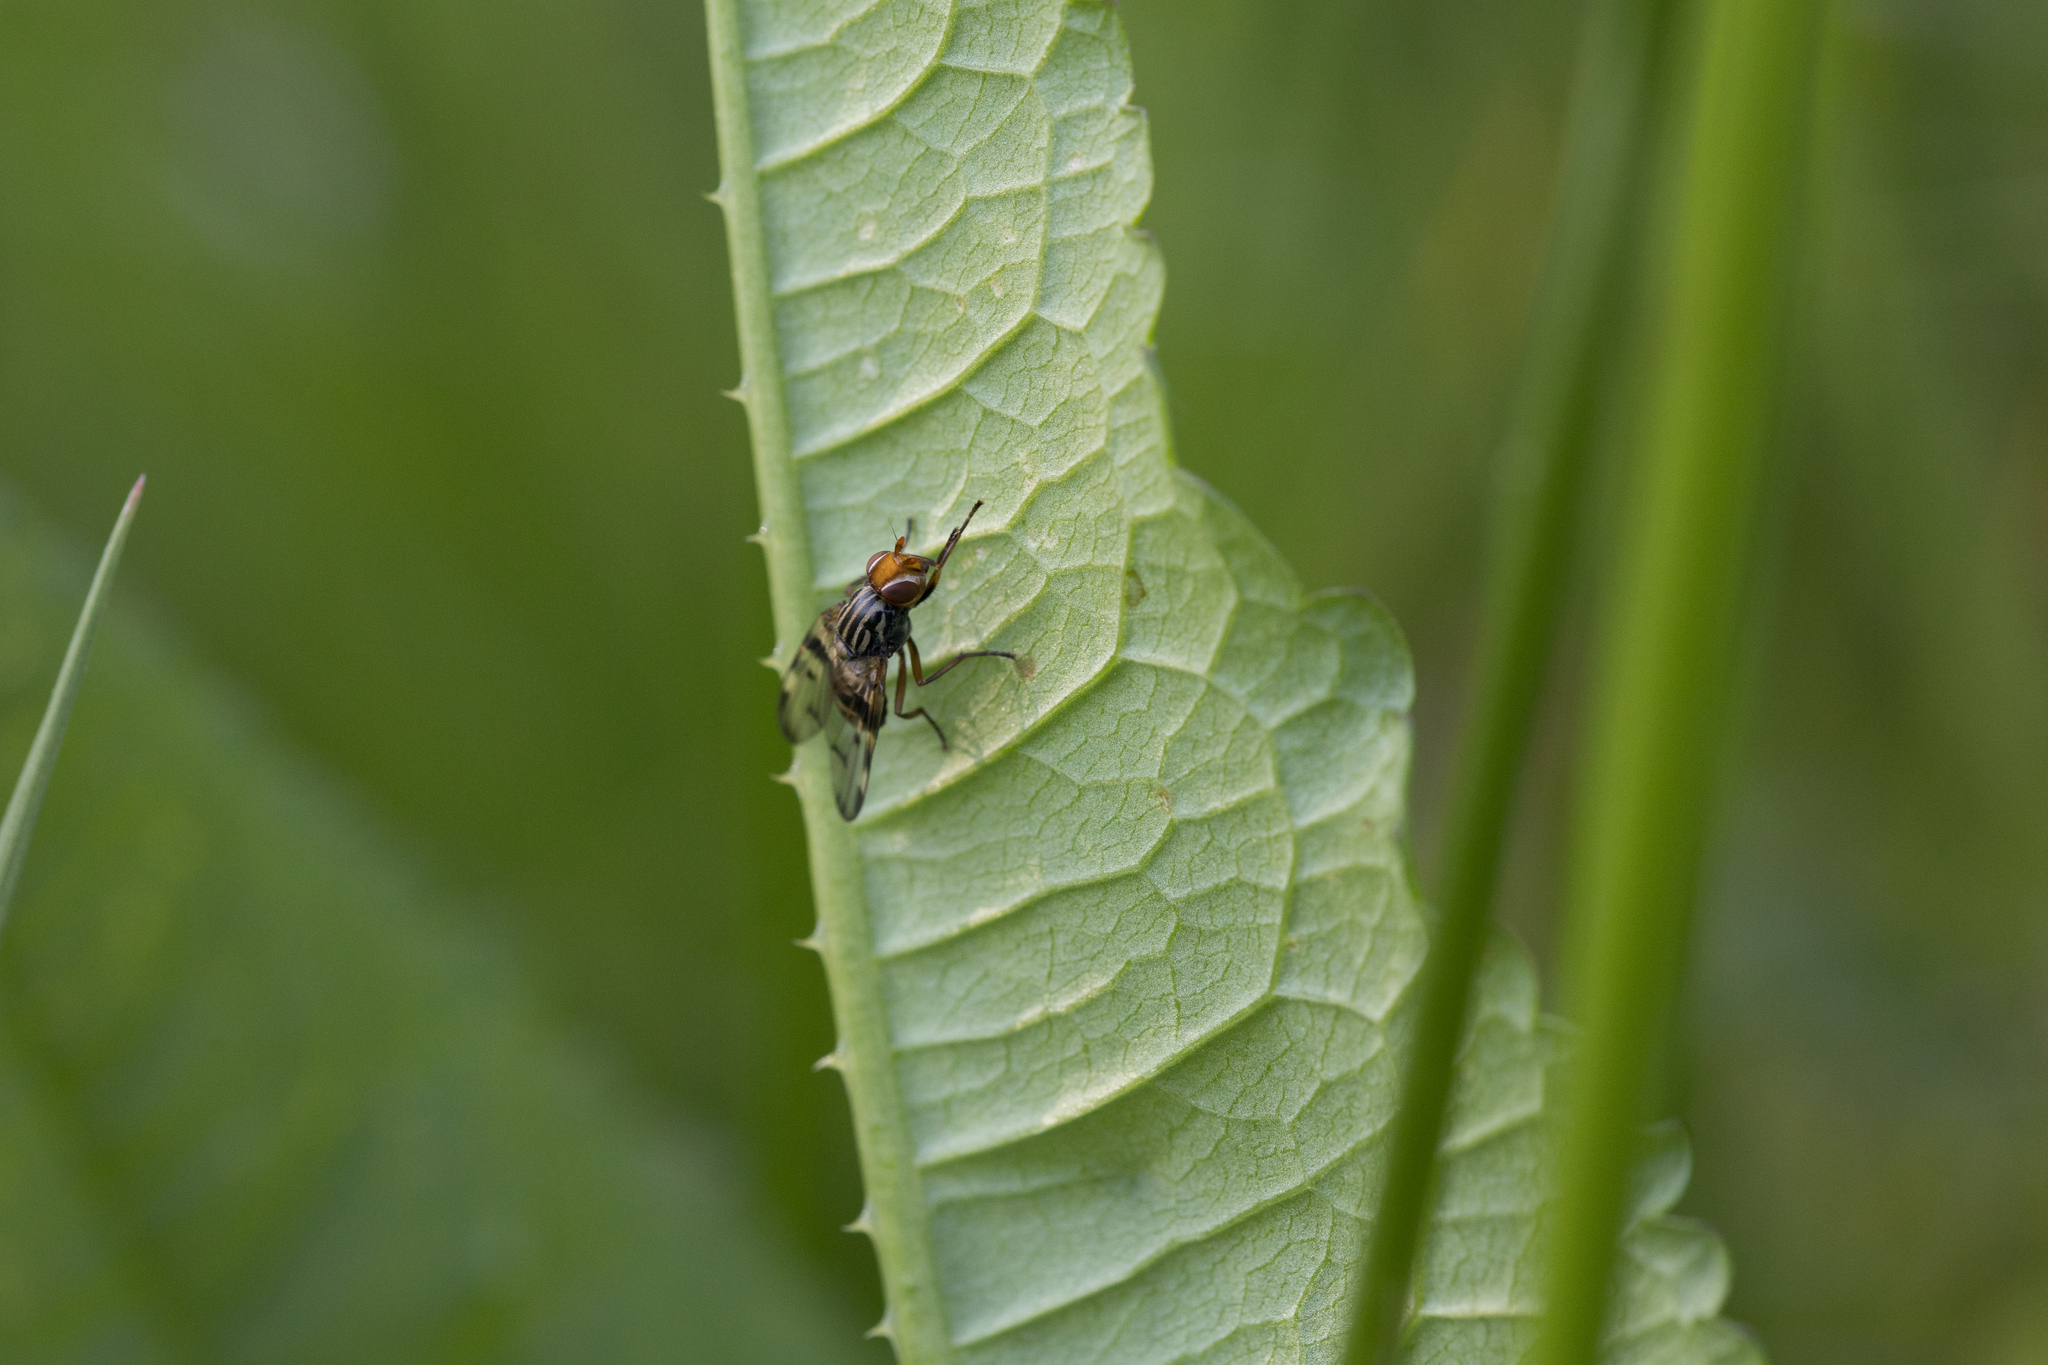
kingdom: Animalia
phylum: Arthropoda
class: Insecta
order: Diptera
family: Ulidiidae
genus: Otites
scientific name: Otites porcus
